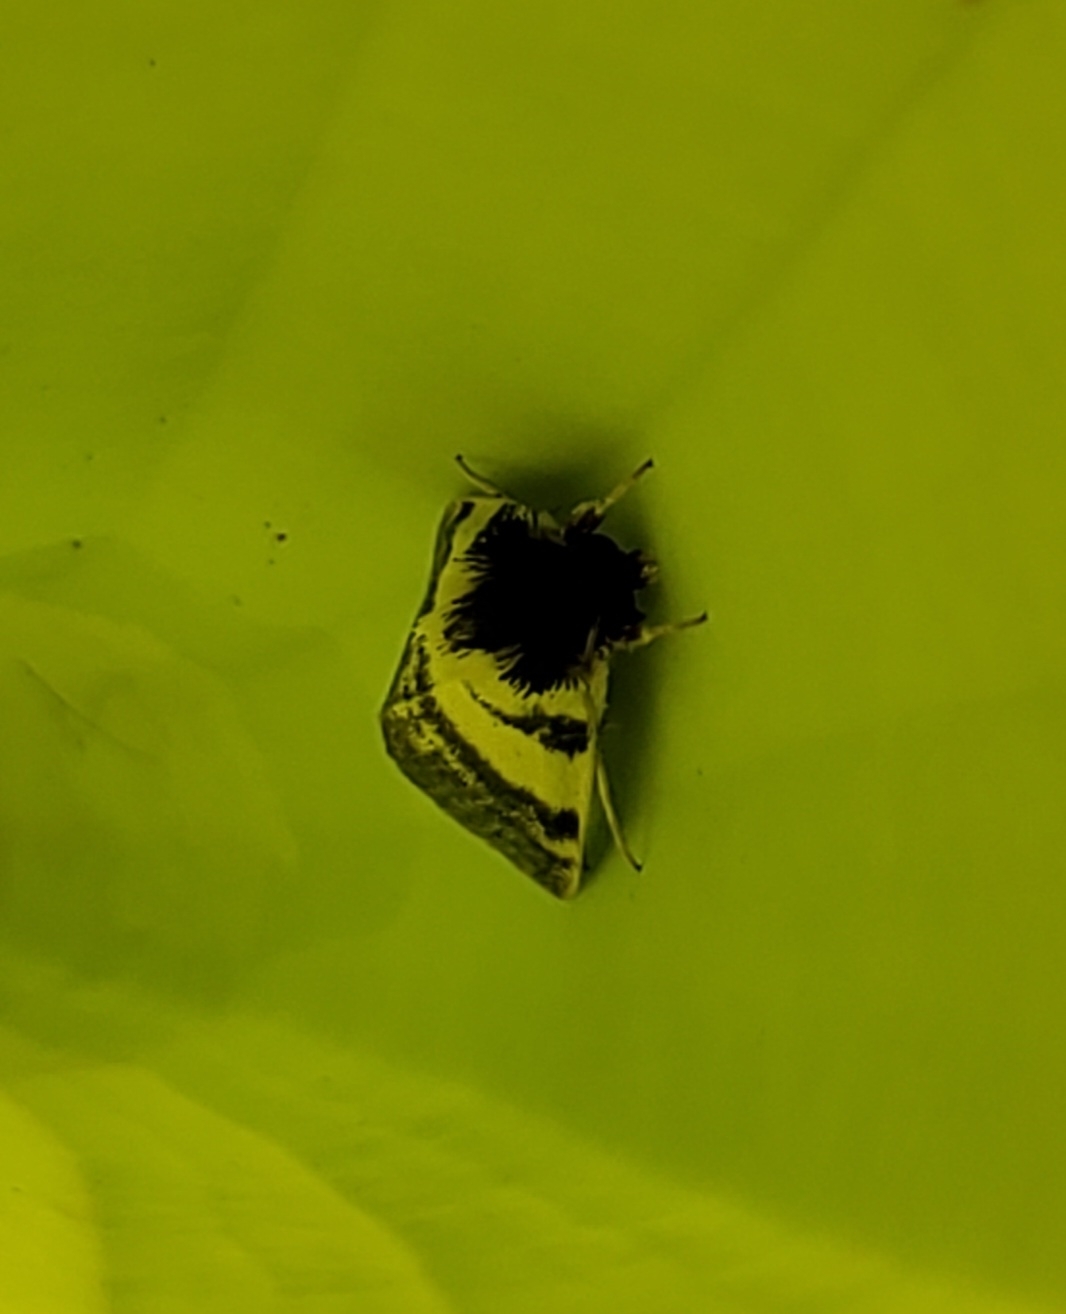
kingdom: Animalia
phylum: Arthropoda
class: Insecta
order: Lepidoptera
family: Noctuidae
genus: Exyra
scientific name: Exyra ridingsii
